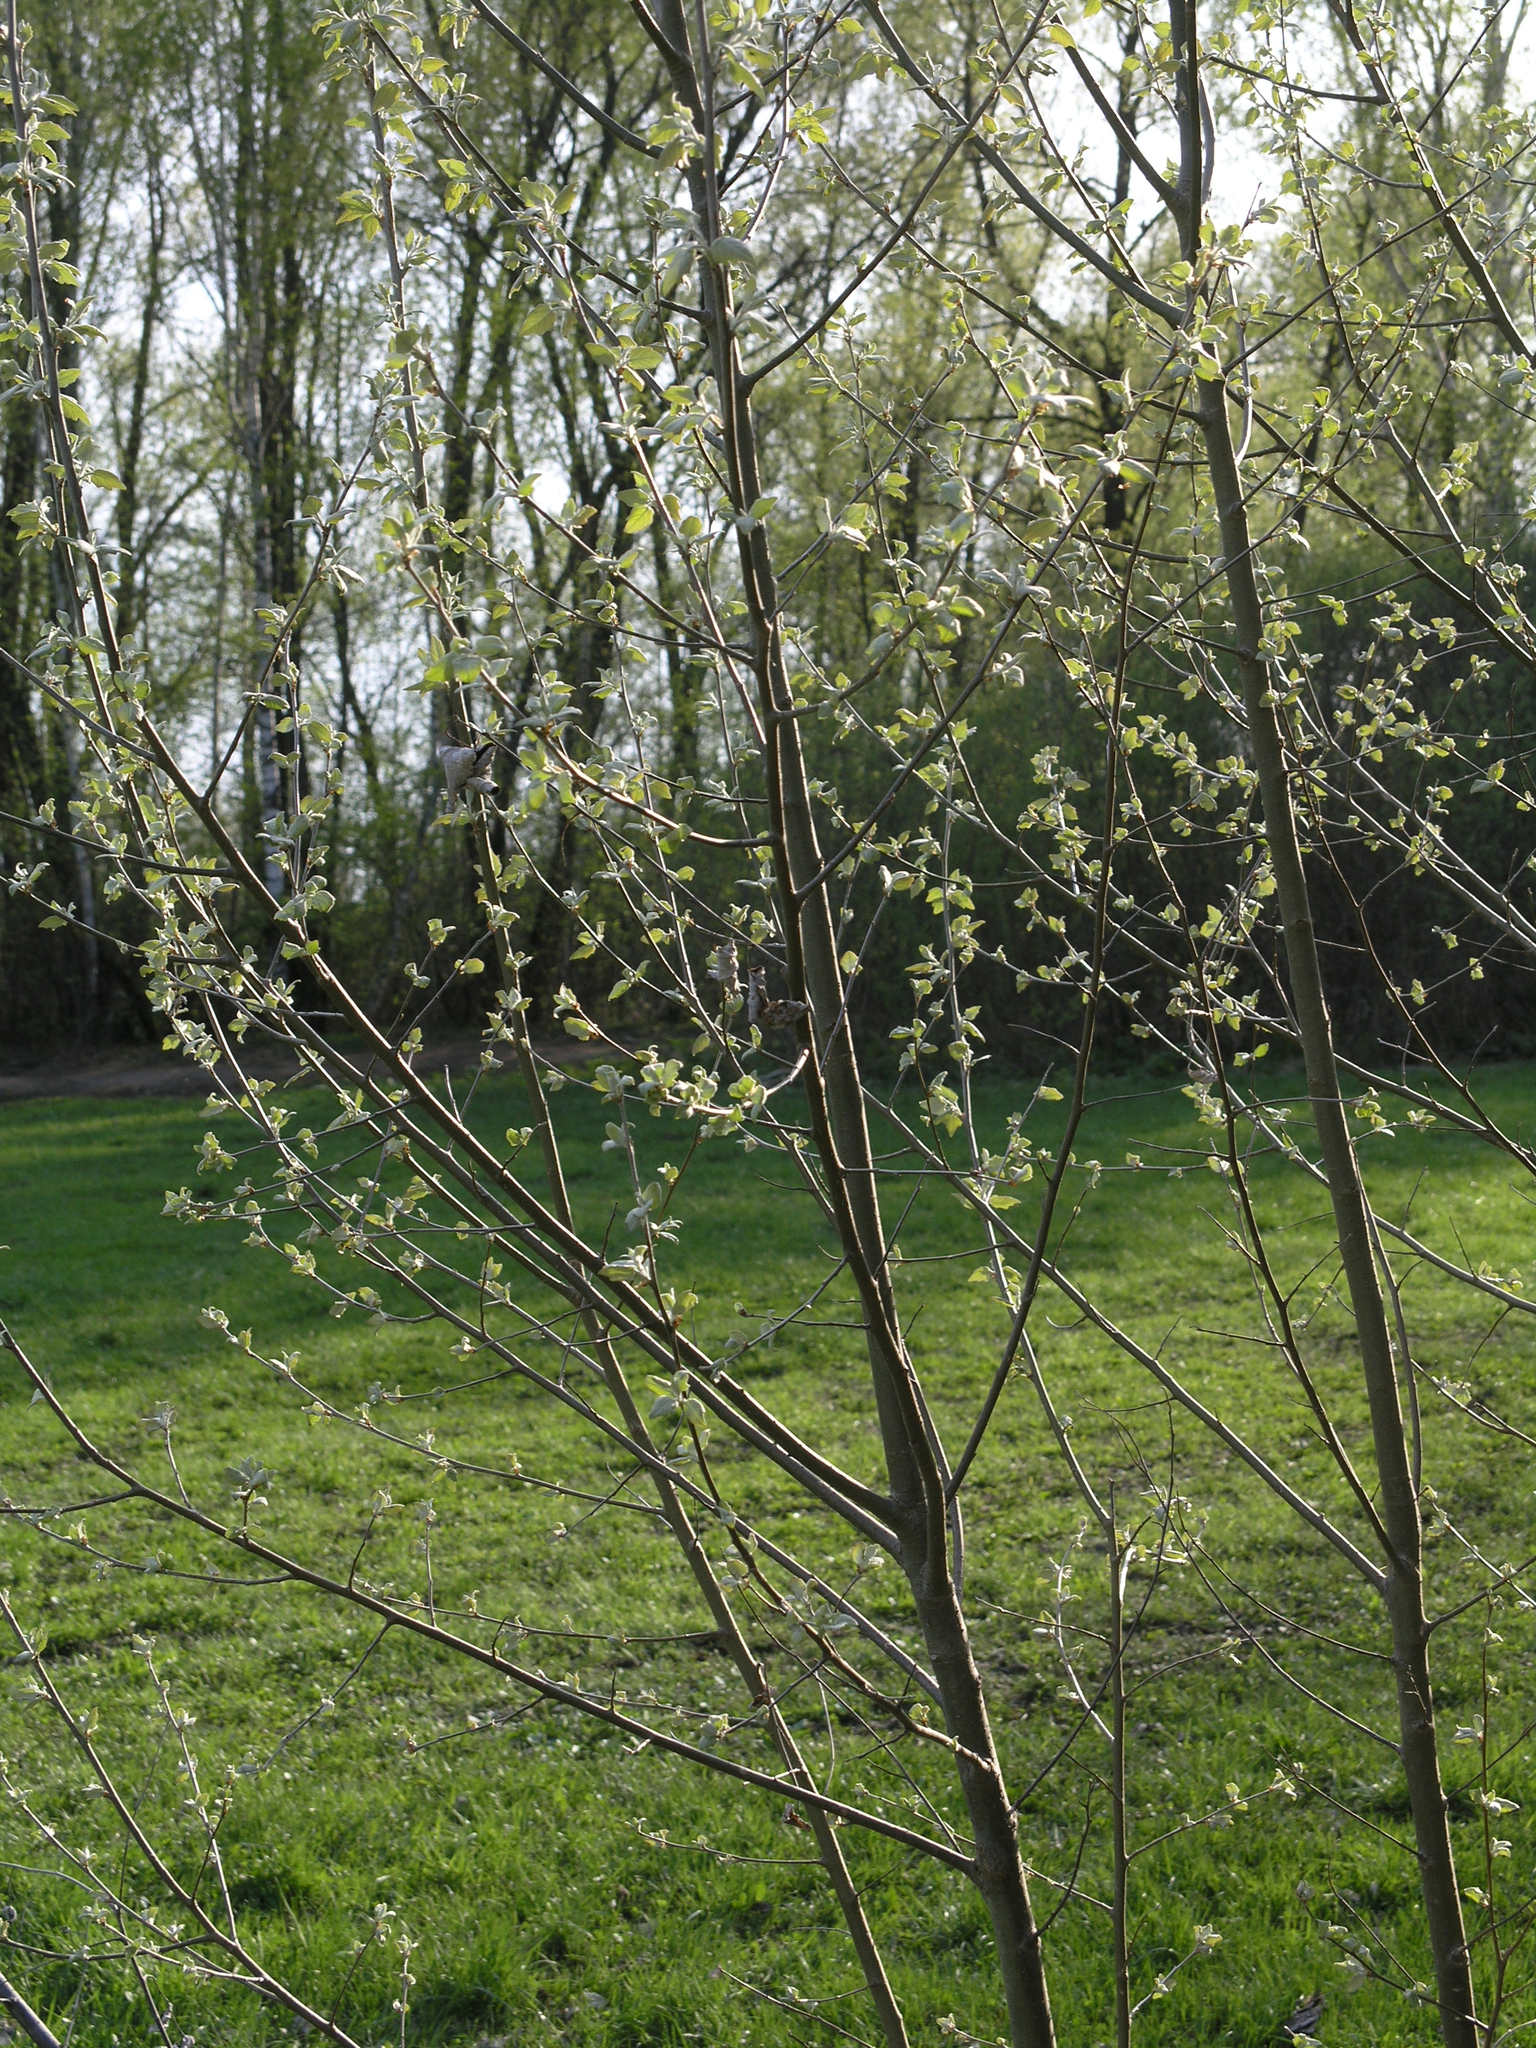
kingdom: Plantae
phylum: Tracheophyta
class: Magnoliopsida
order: Malpighiales
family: Salicaceae
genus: Populus
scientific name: Populus alba
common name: White poplar
